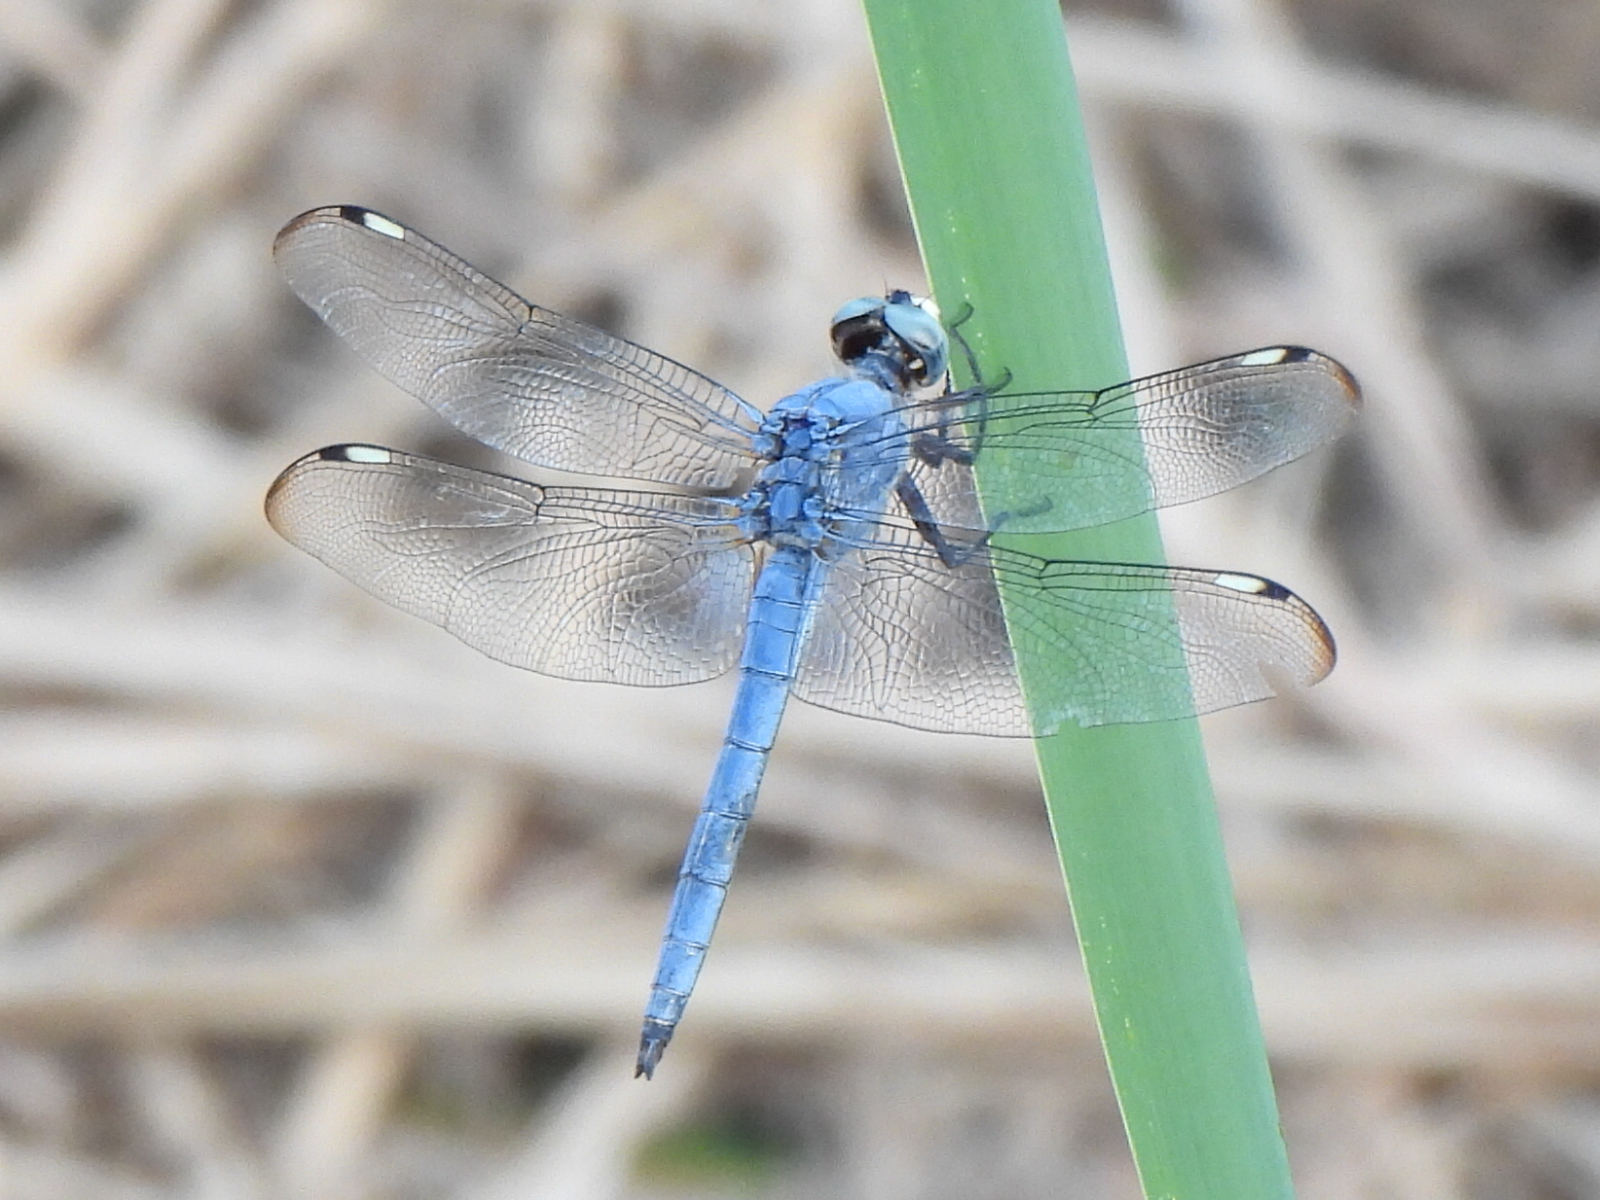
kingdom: Animalia
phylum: Arthropoda
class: Insecta
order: Odonata
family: Libellulidae
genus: Libellula
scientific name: Libellula comanche
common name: Comanche skimmer
